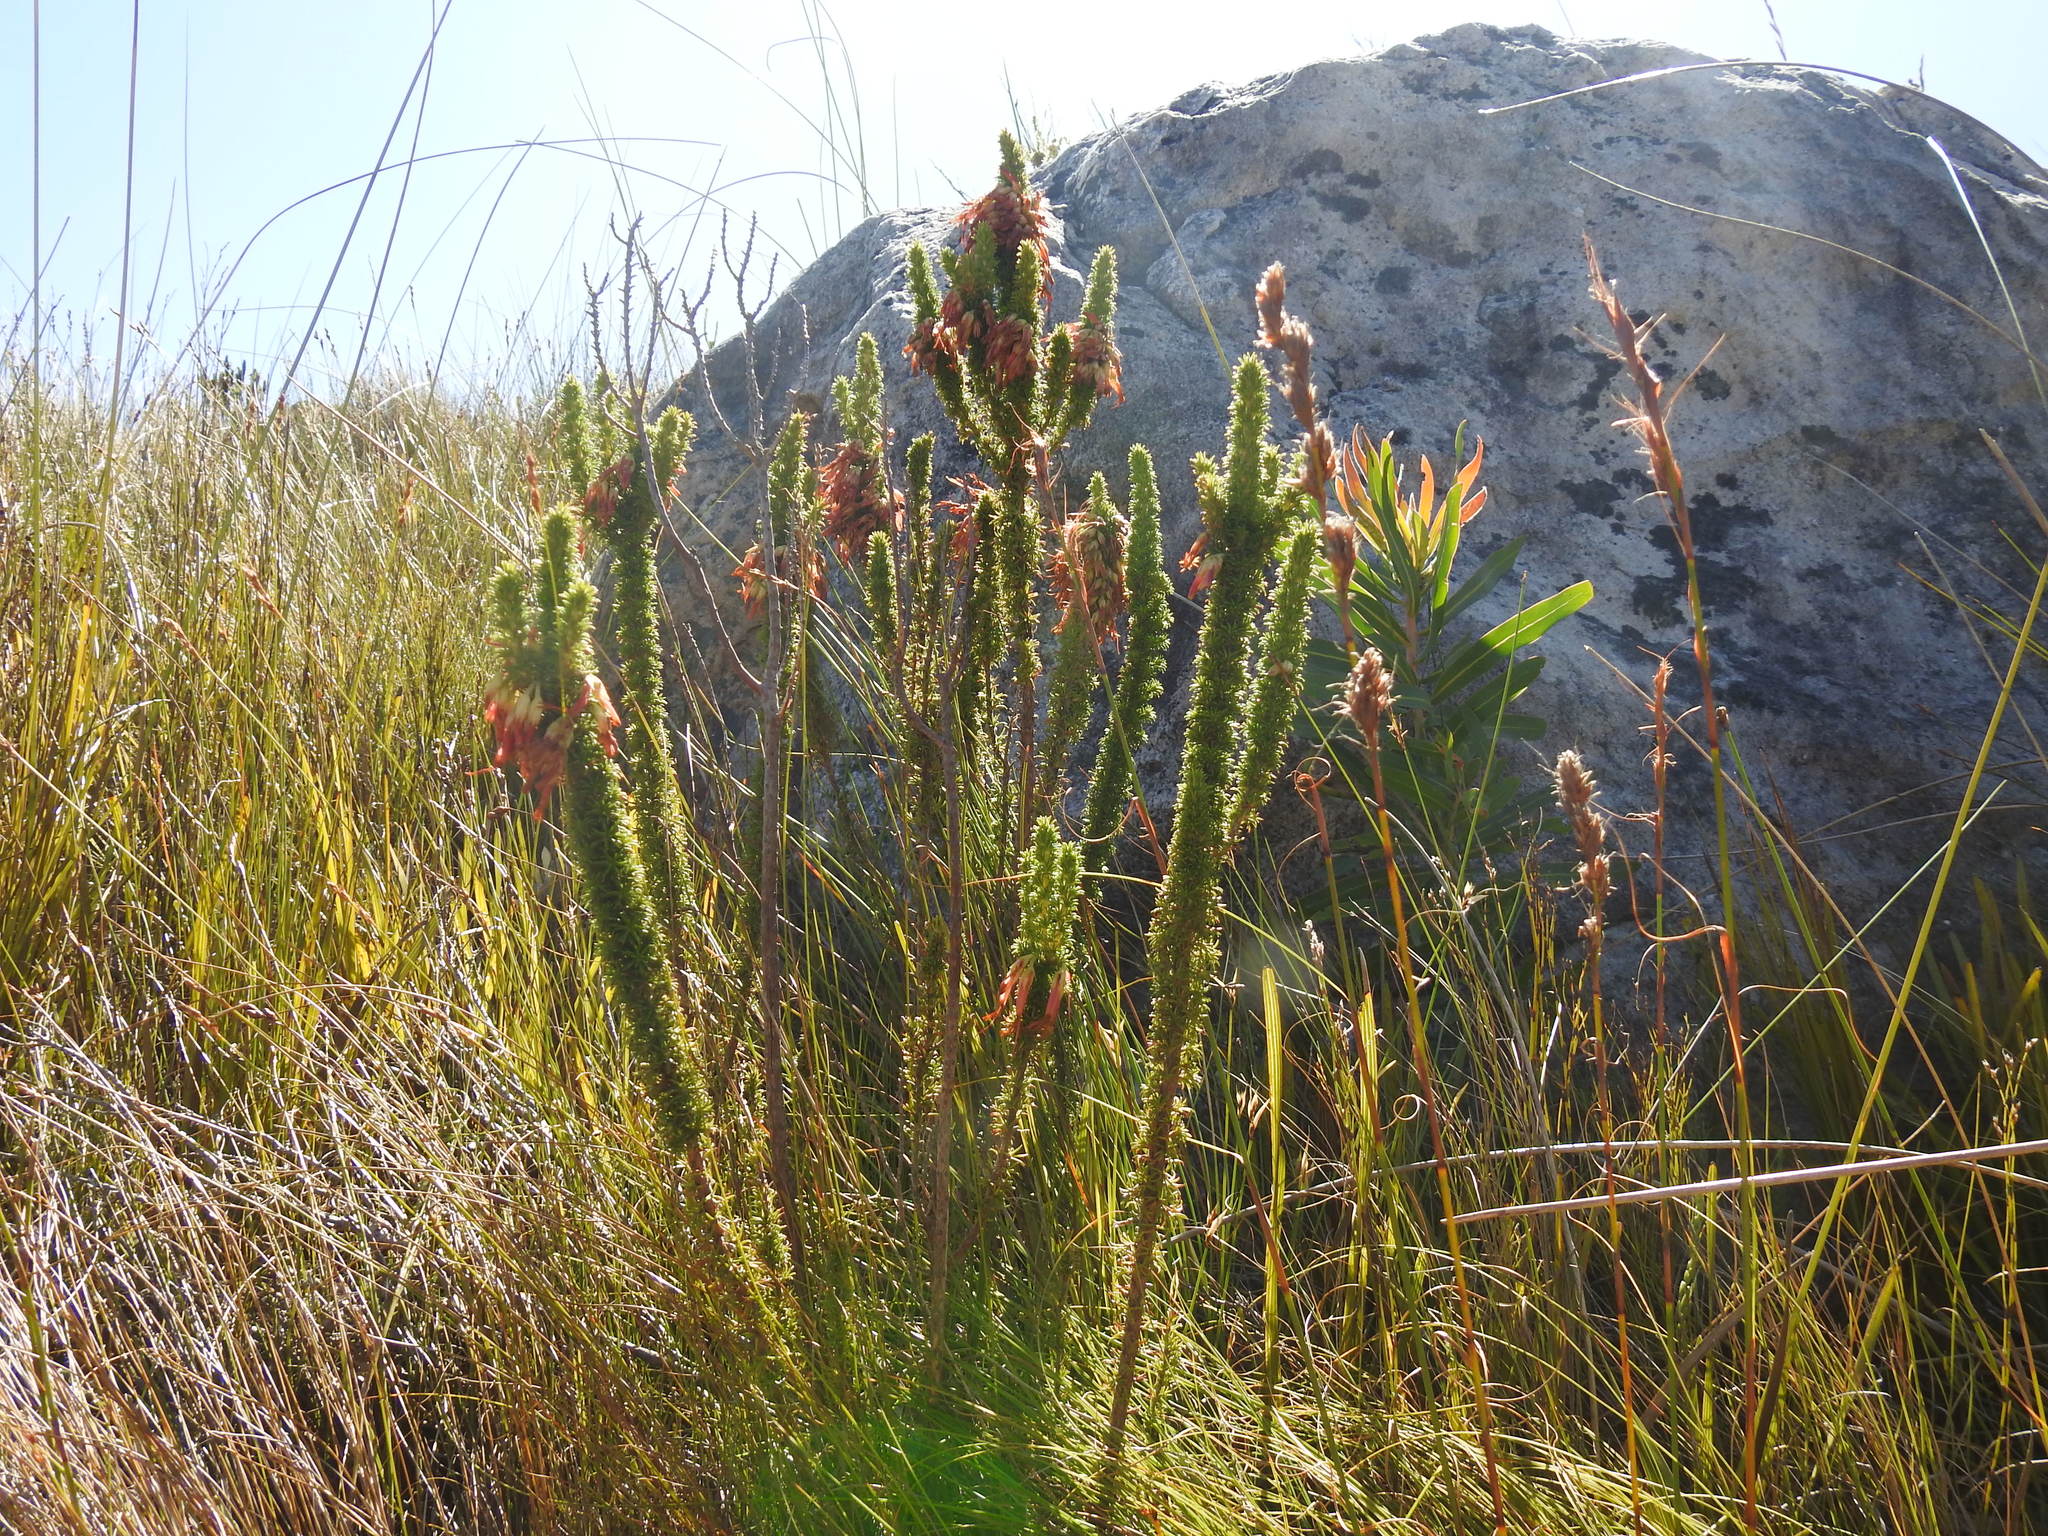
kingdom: Plantae
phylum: Tracheophyta
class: Magnoliopsida
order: Ericales
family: Ericaceae
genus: Erica
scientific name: Erica coccinea
